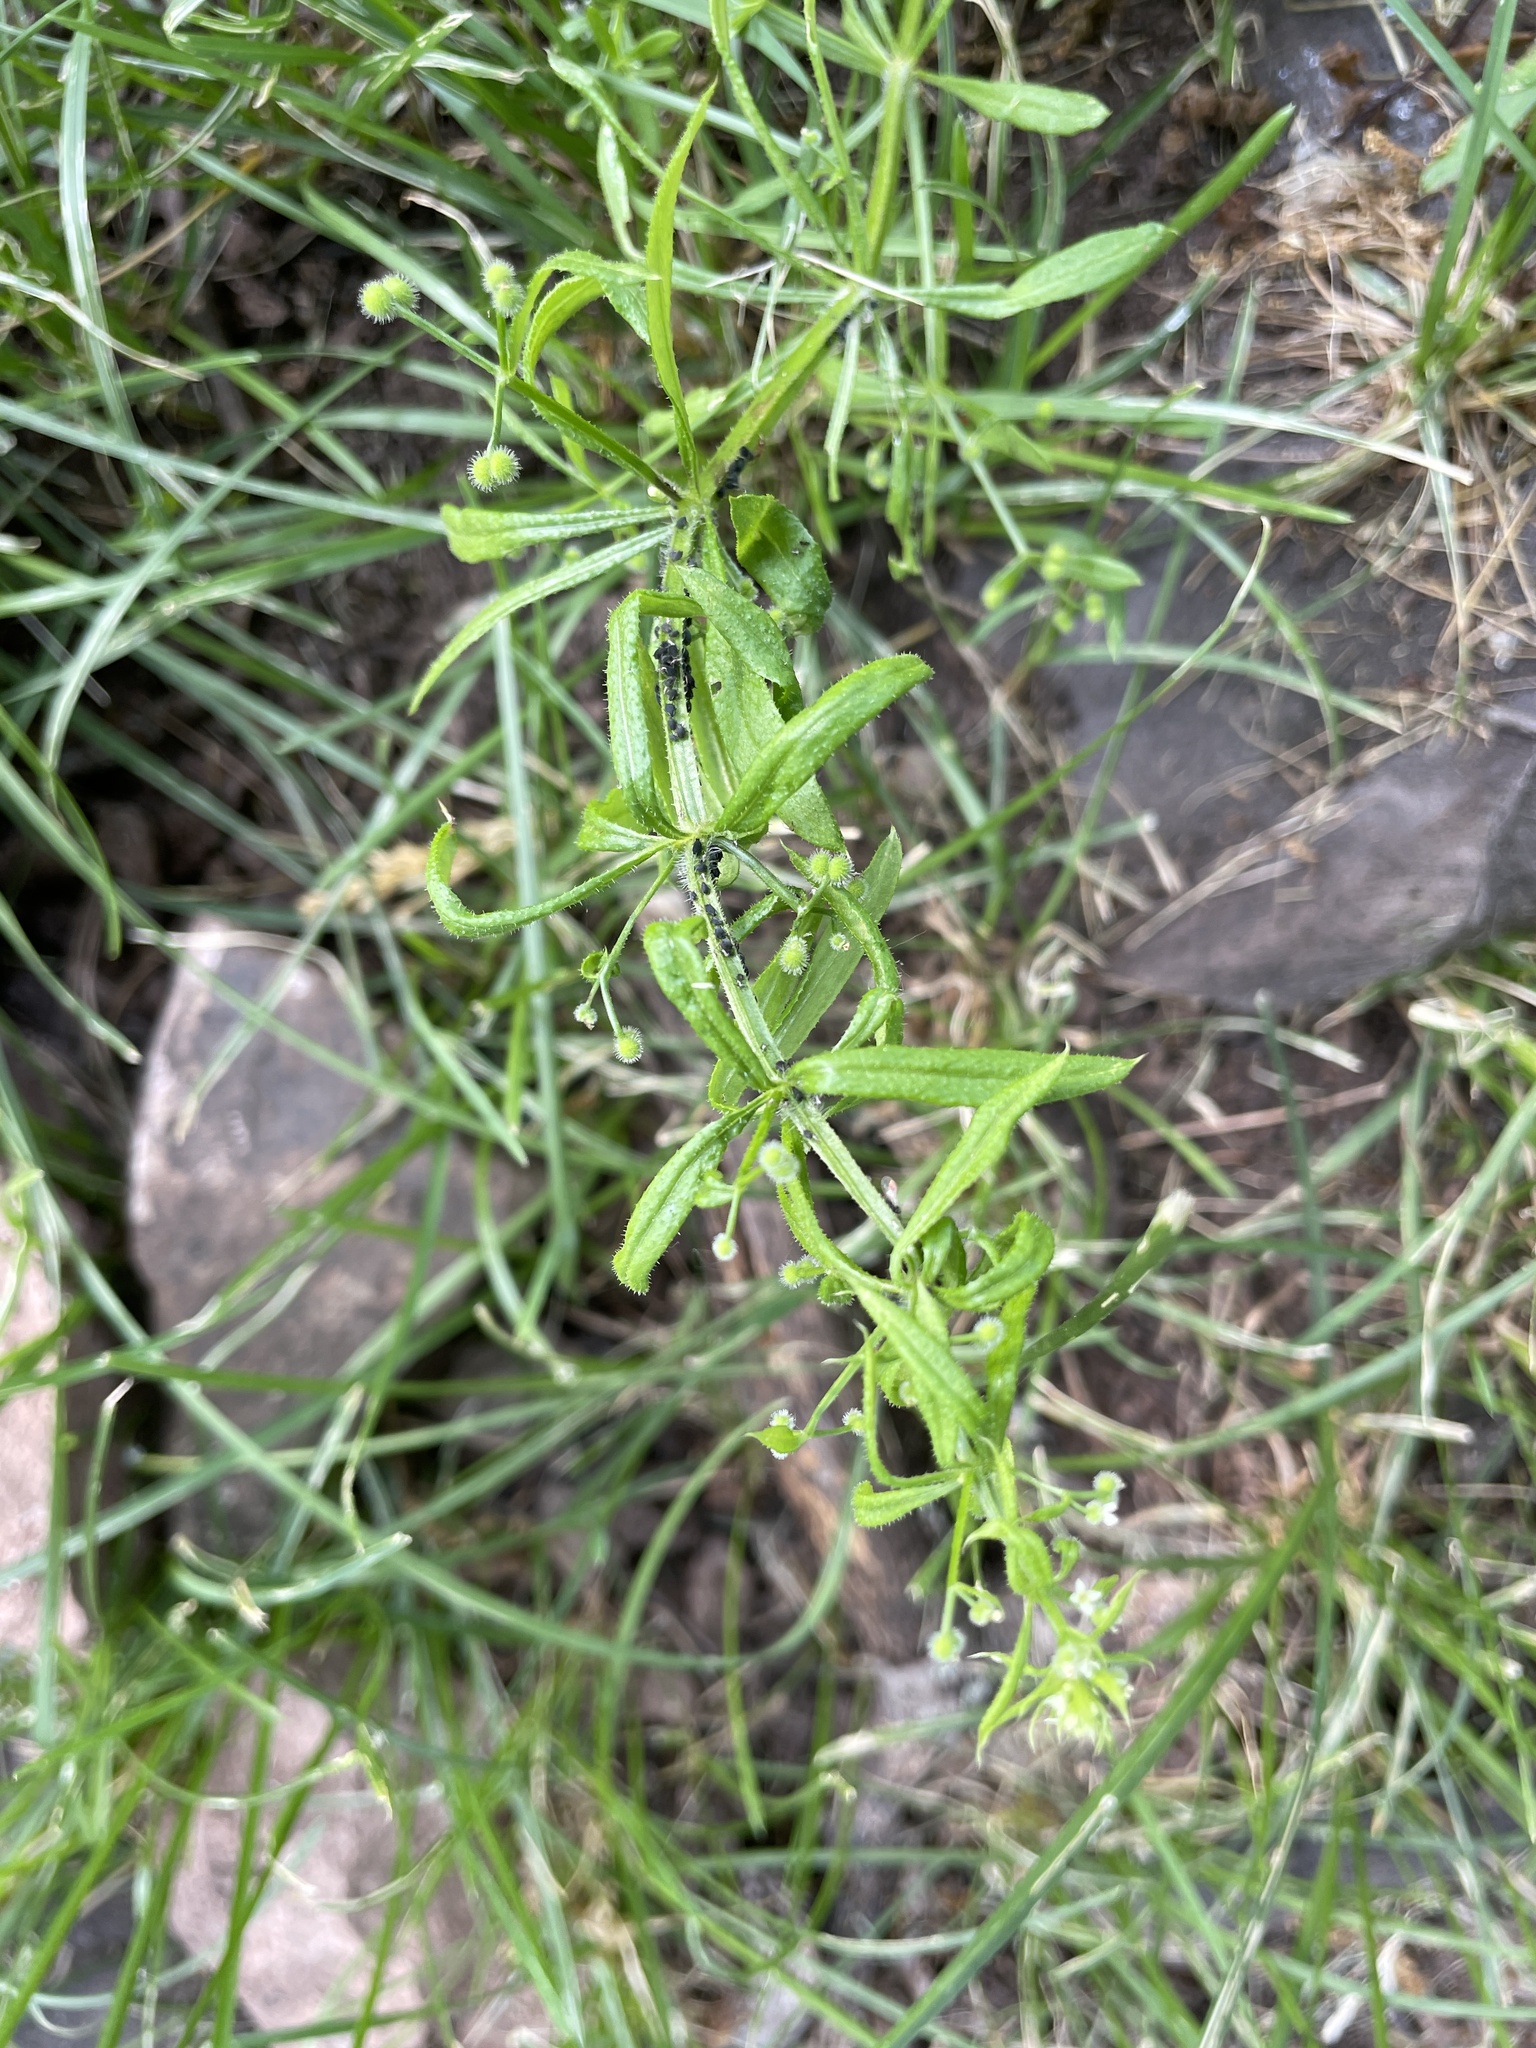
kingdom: Plantae
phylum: Tracheophyta
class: Magnoliopsida
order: Gentianales
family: Rubiaceae
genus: Galium
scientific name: Galium aparine
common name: Cleavers
